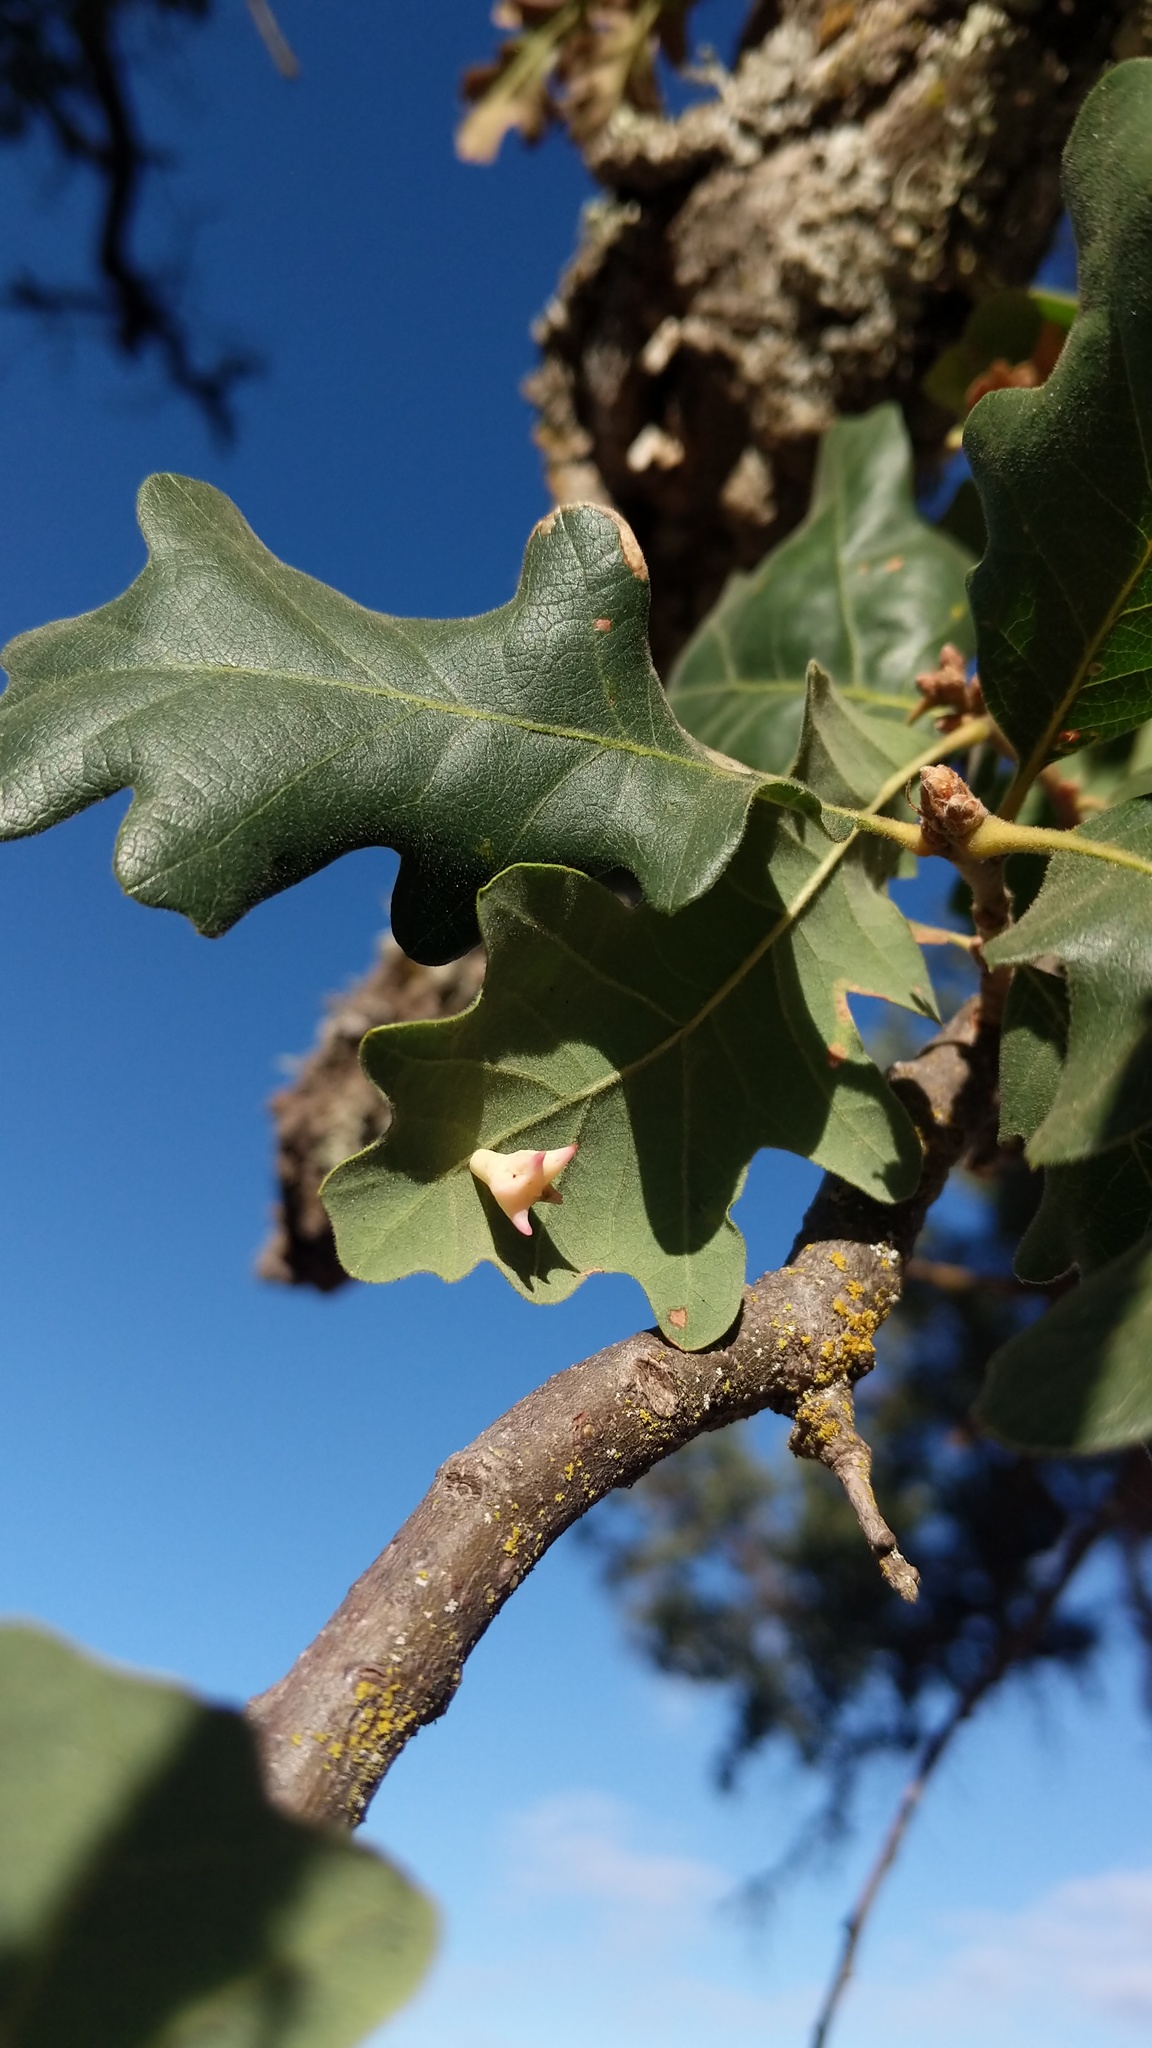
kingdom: Animalia
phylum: Arthropoda
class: Insecta
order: Hymenoptera
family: Cynipidae
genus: Cynips
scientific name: Cynips douglasi
